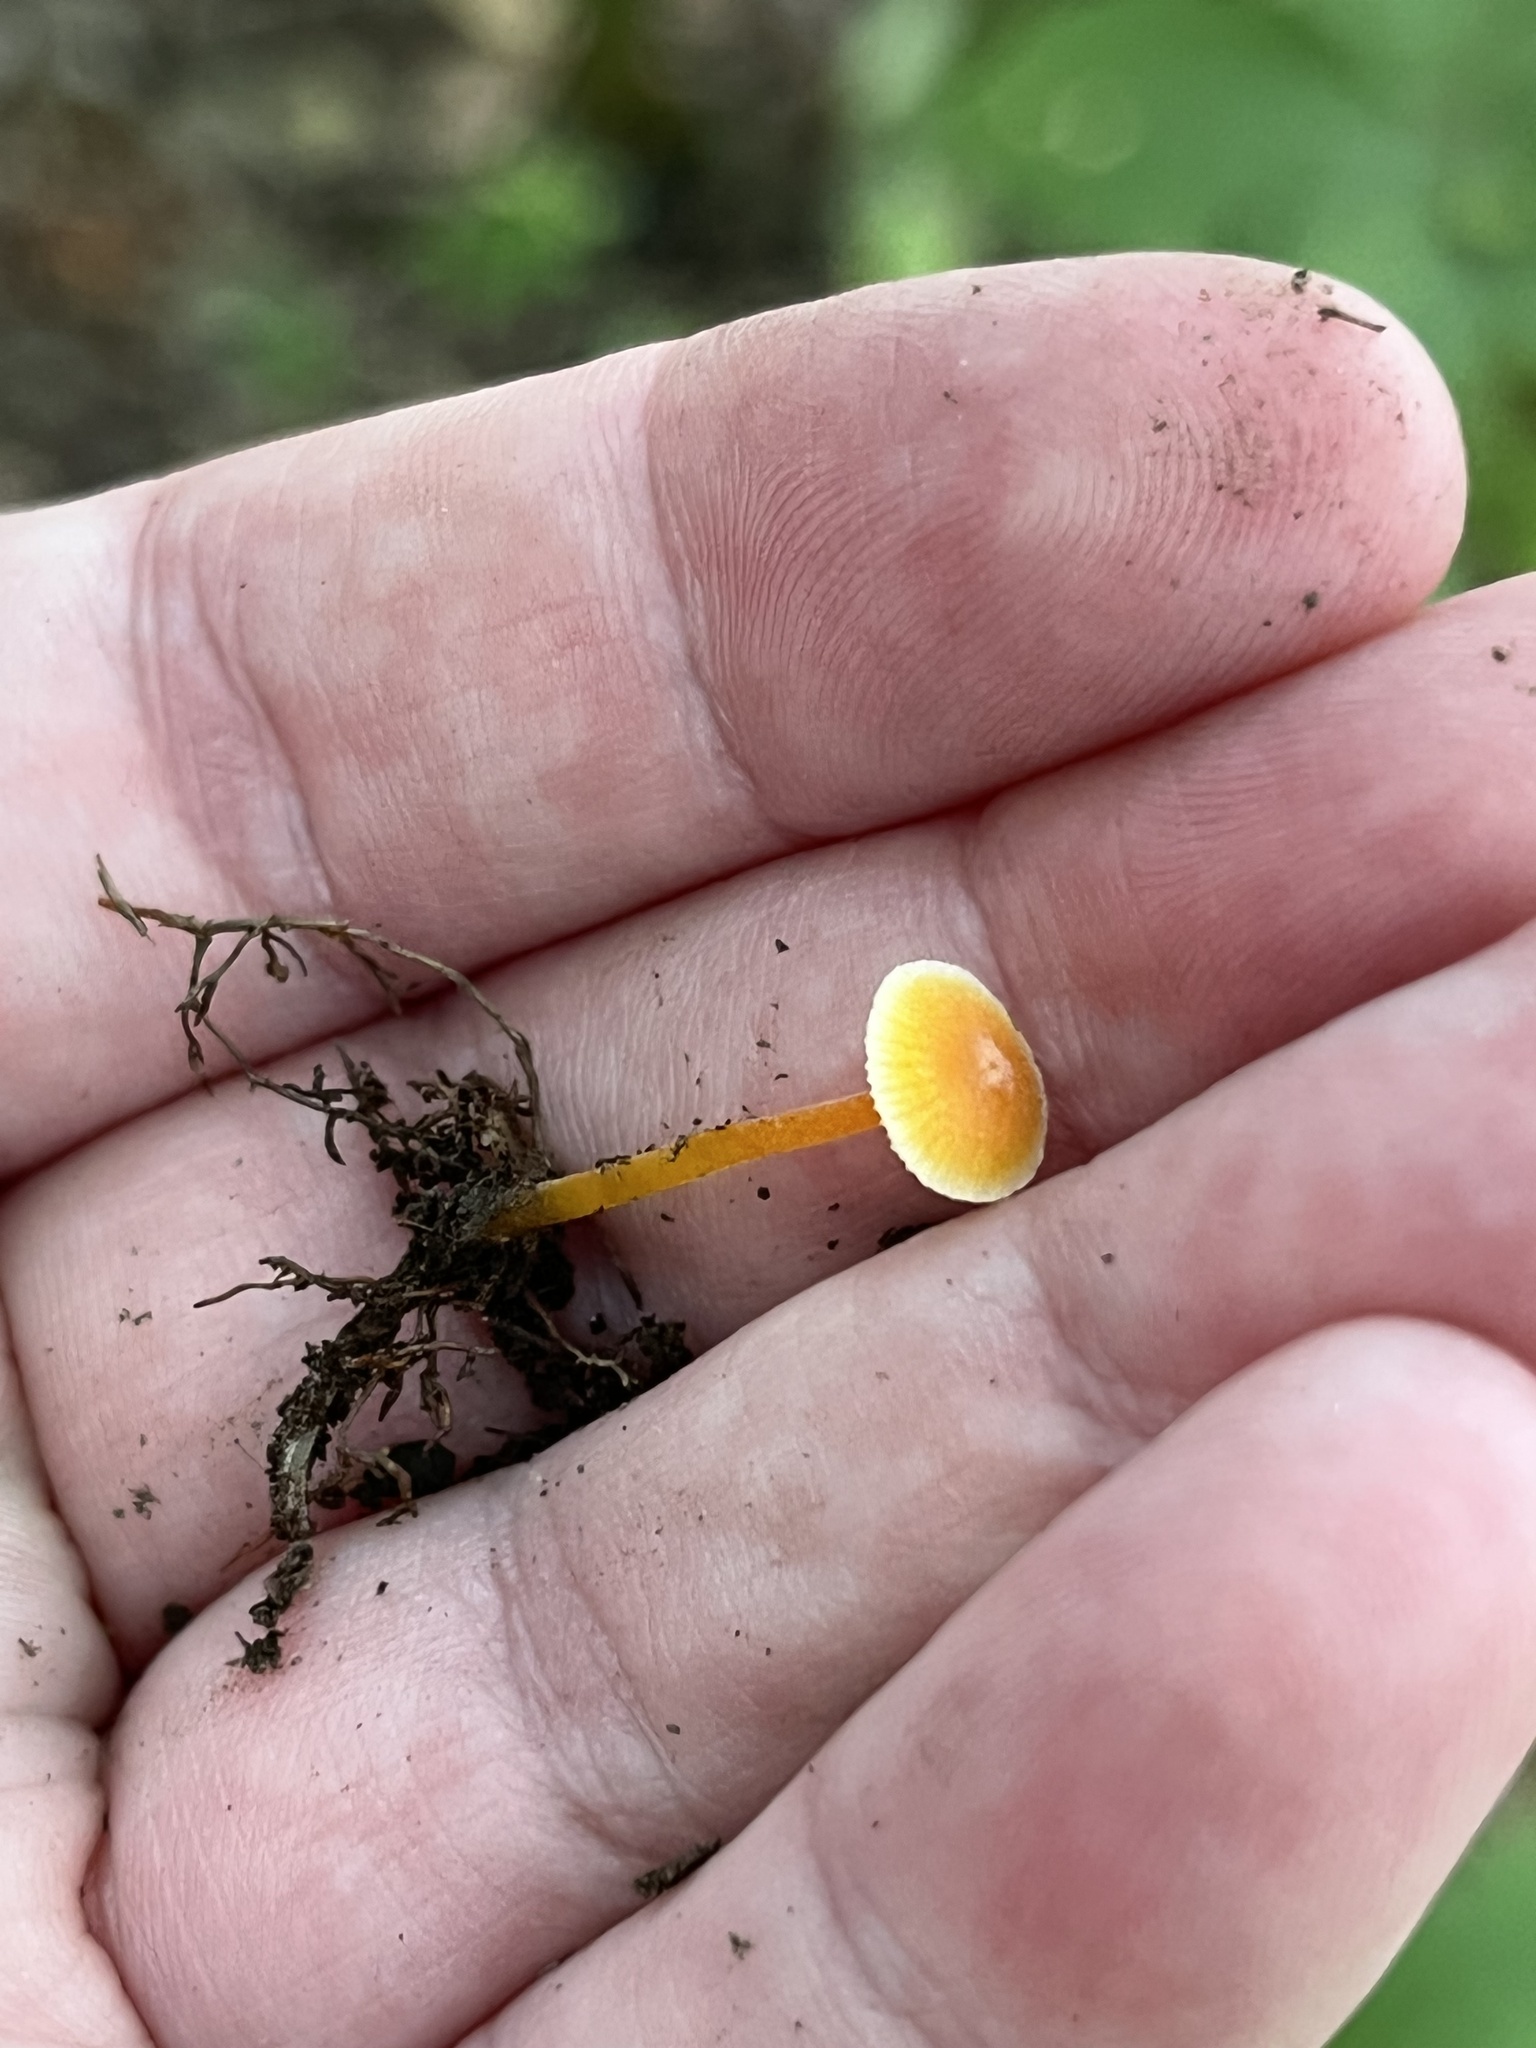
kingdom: Fungi
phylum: Basidiomycota
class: Agaricomycetes
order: Agaricales
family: Mycenaceae
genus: Mycena
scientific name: Mycena crocea
